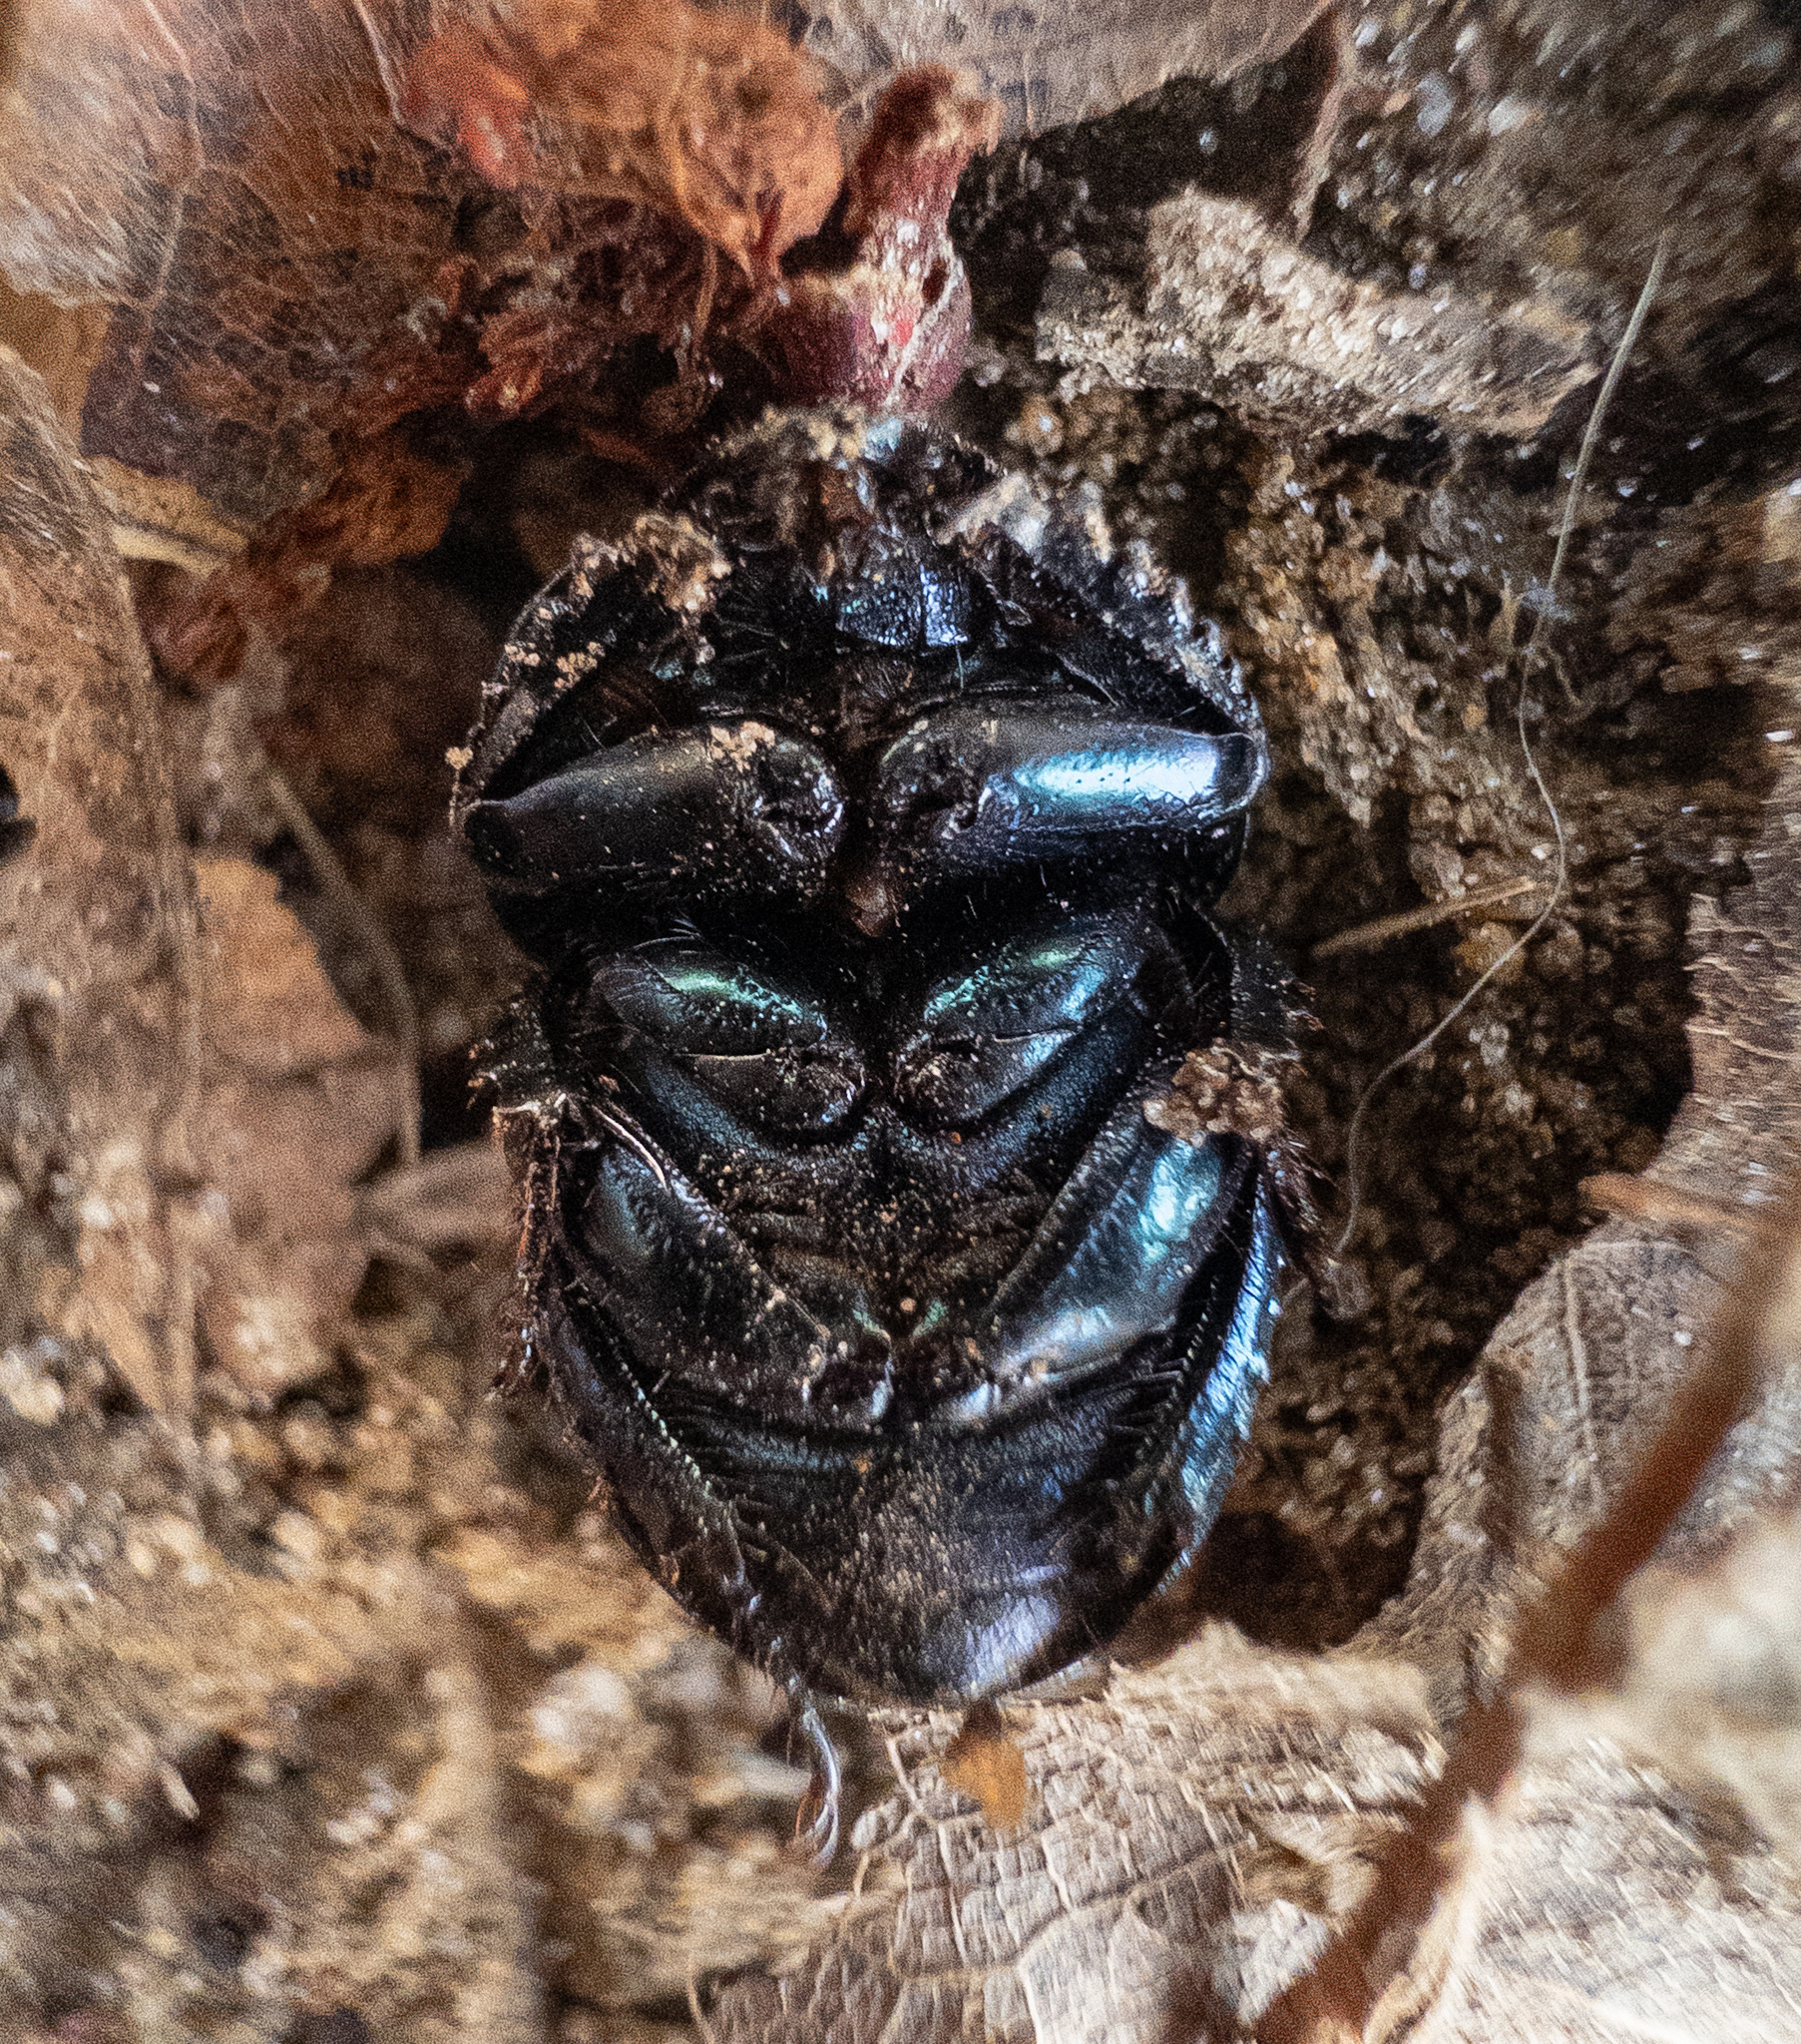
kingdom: Animalia
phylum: Arthropoda
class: Insecta
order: Coleoptera
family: Geotrupidae
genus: Geotrupes
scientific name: Geotrupes splendidus
